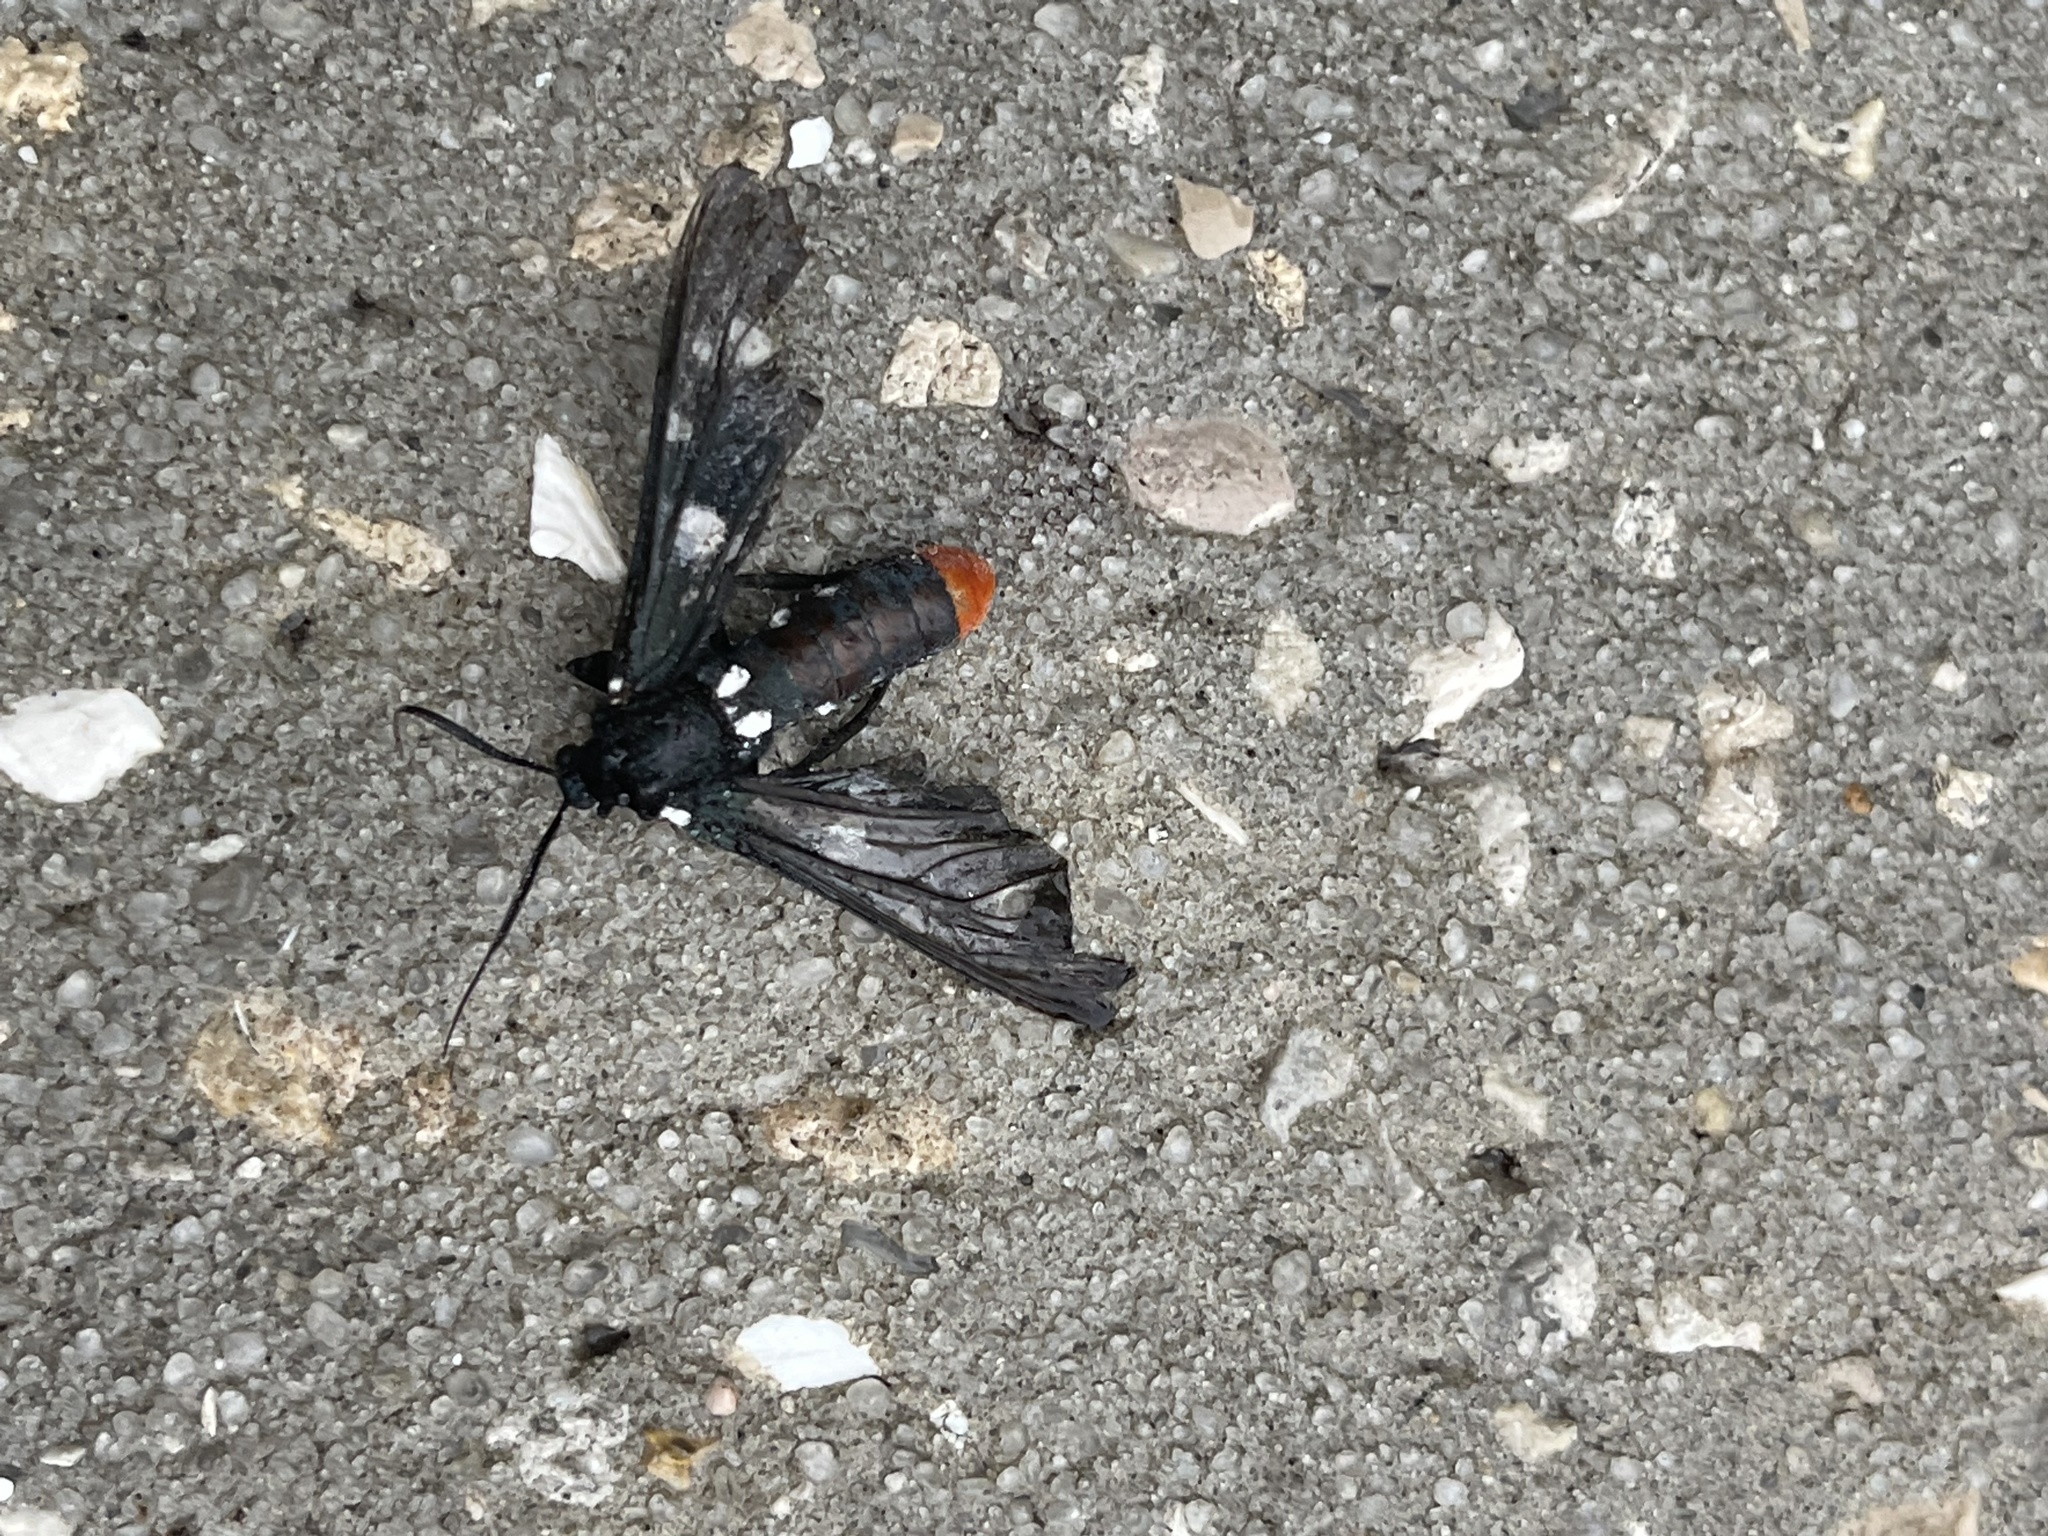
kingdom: Animalia
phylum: Arthropoda
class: Insecta
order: Lepidoptera
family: Erebidae
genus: Syntomeida
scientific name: Syntomeida epilais
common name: Polka-dot wasp moth
